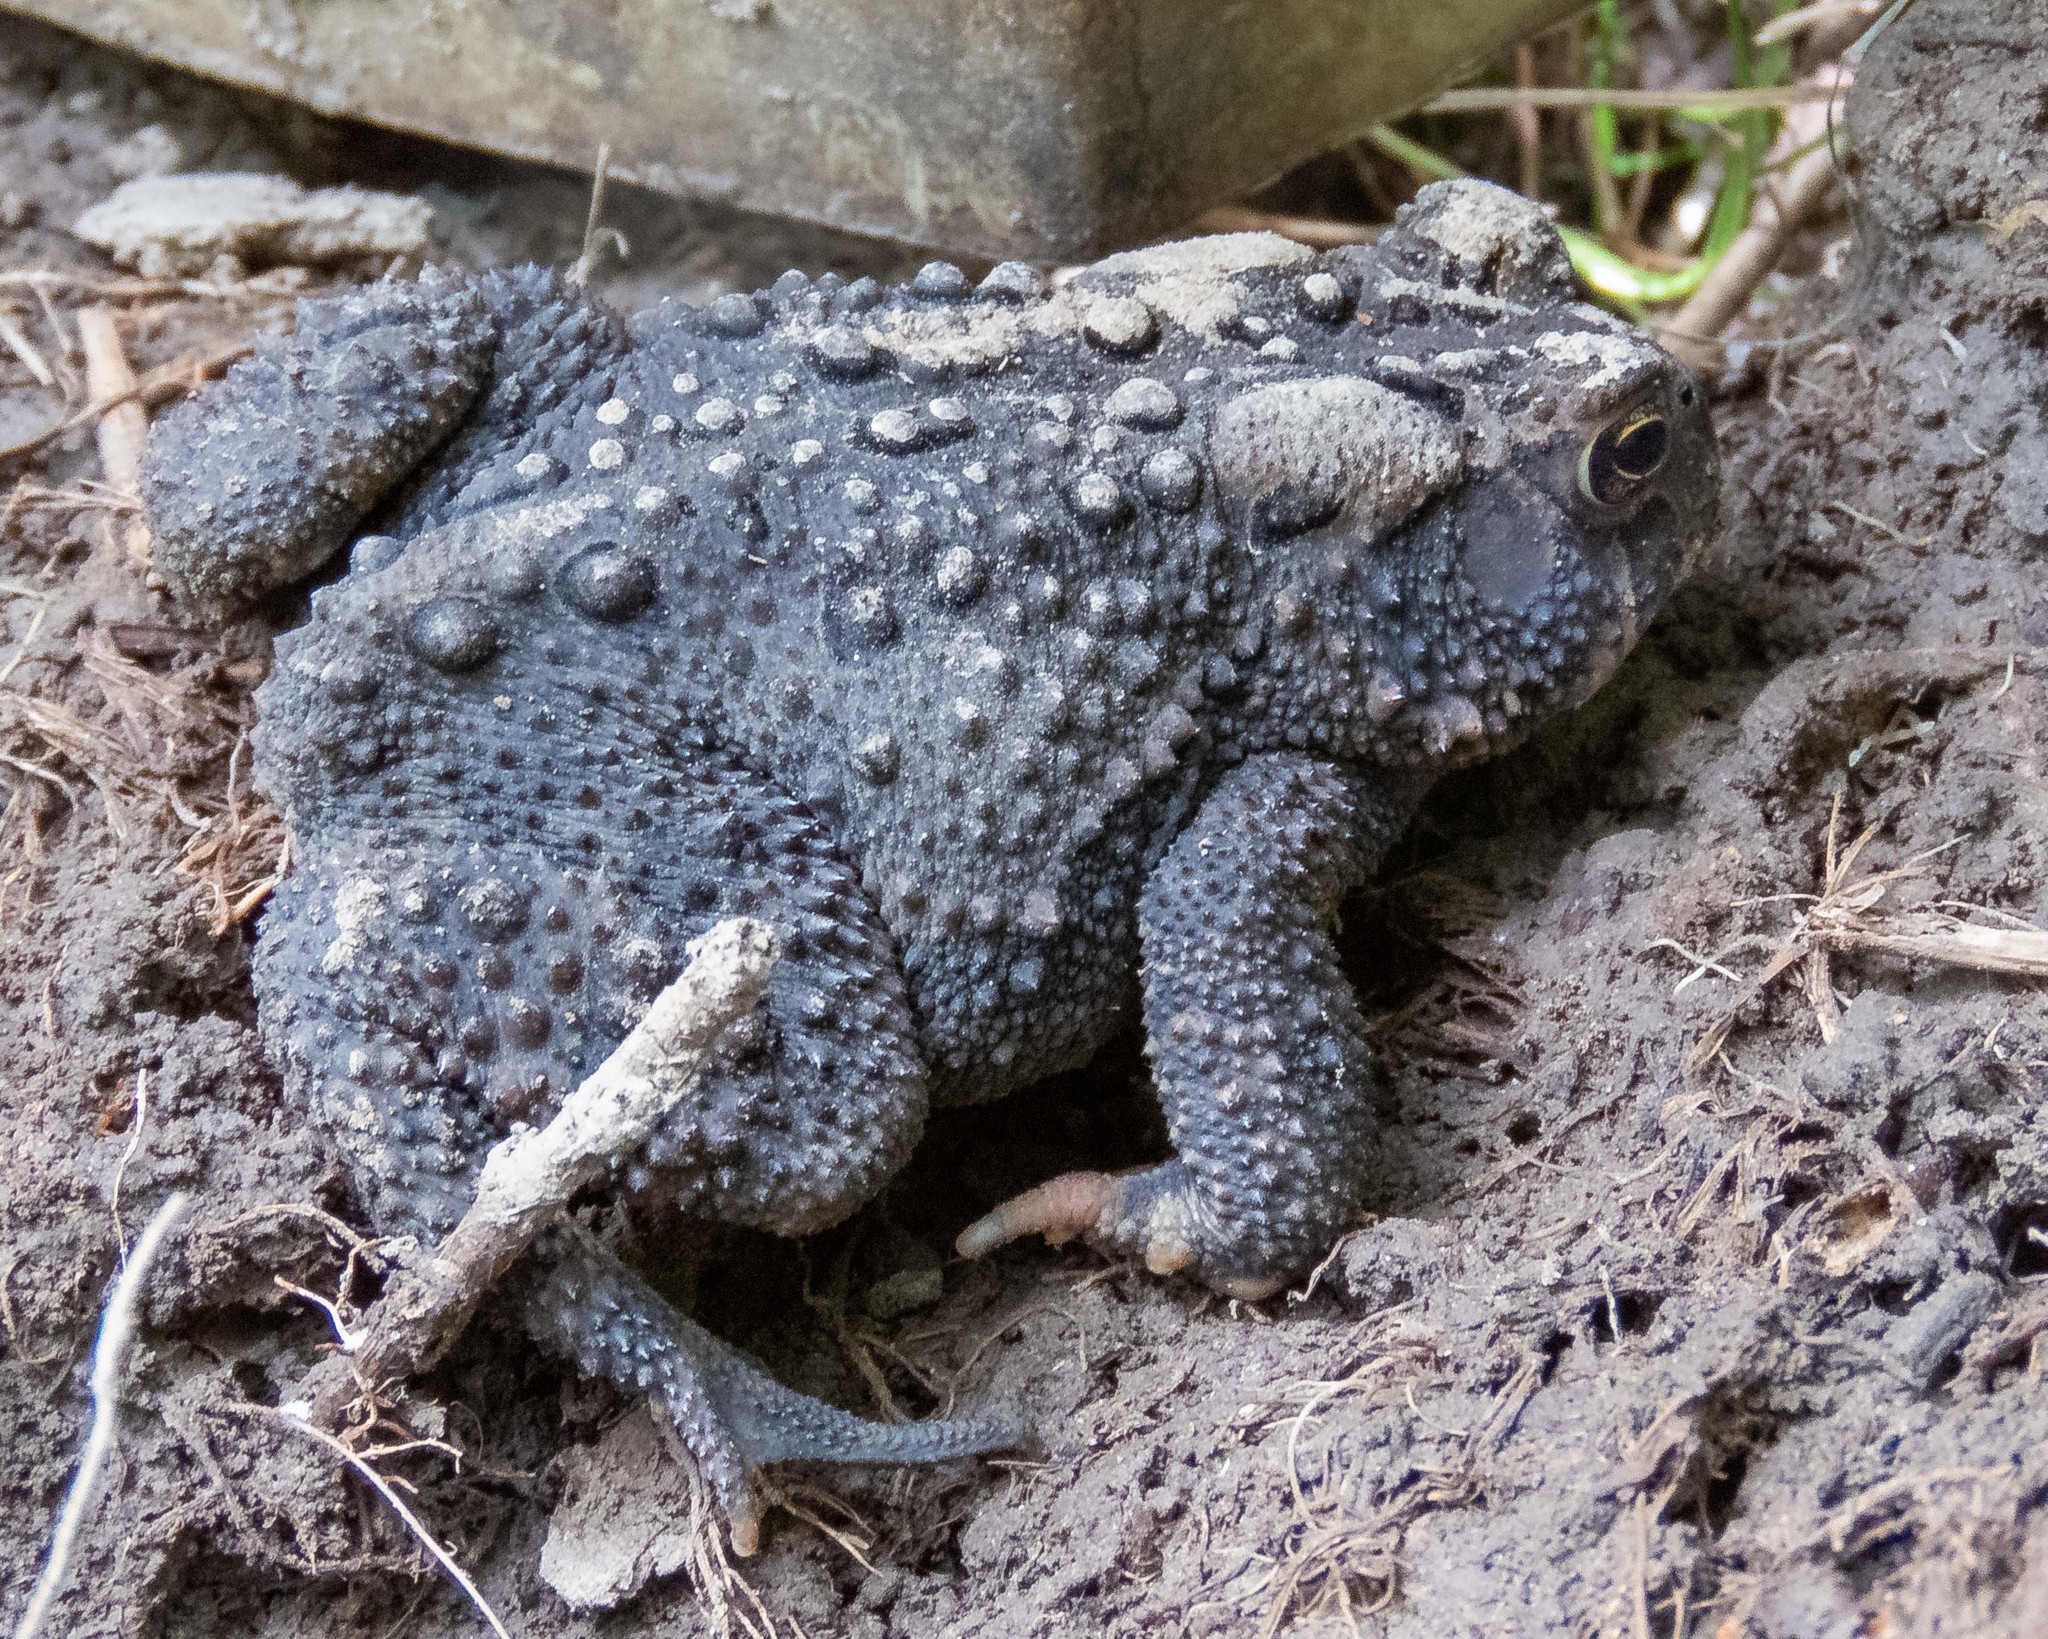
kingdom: Animalia
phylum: Chordata
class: Amphibia
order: Anura
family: Bufonidae
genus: Anaxyrus
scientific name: Anaxyrus americanus
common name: American toad
